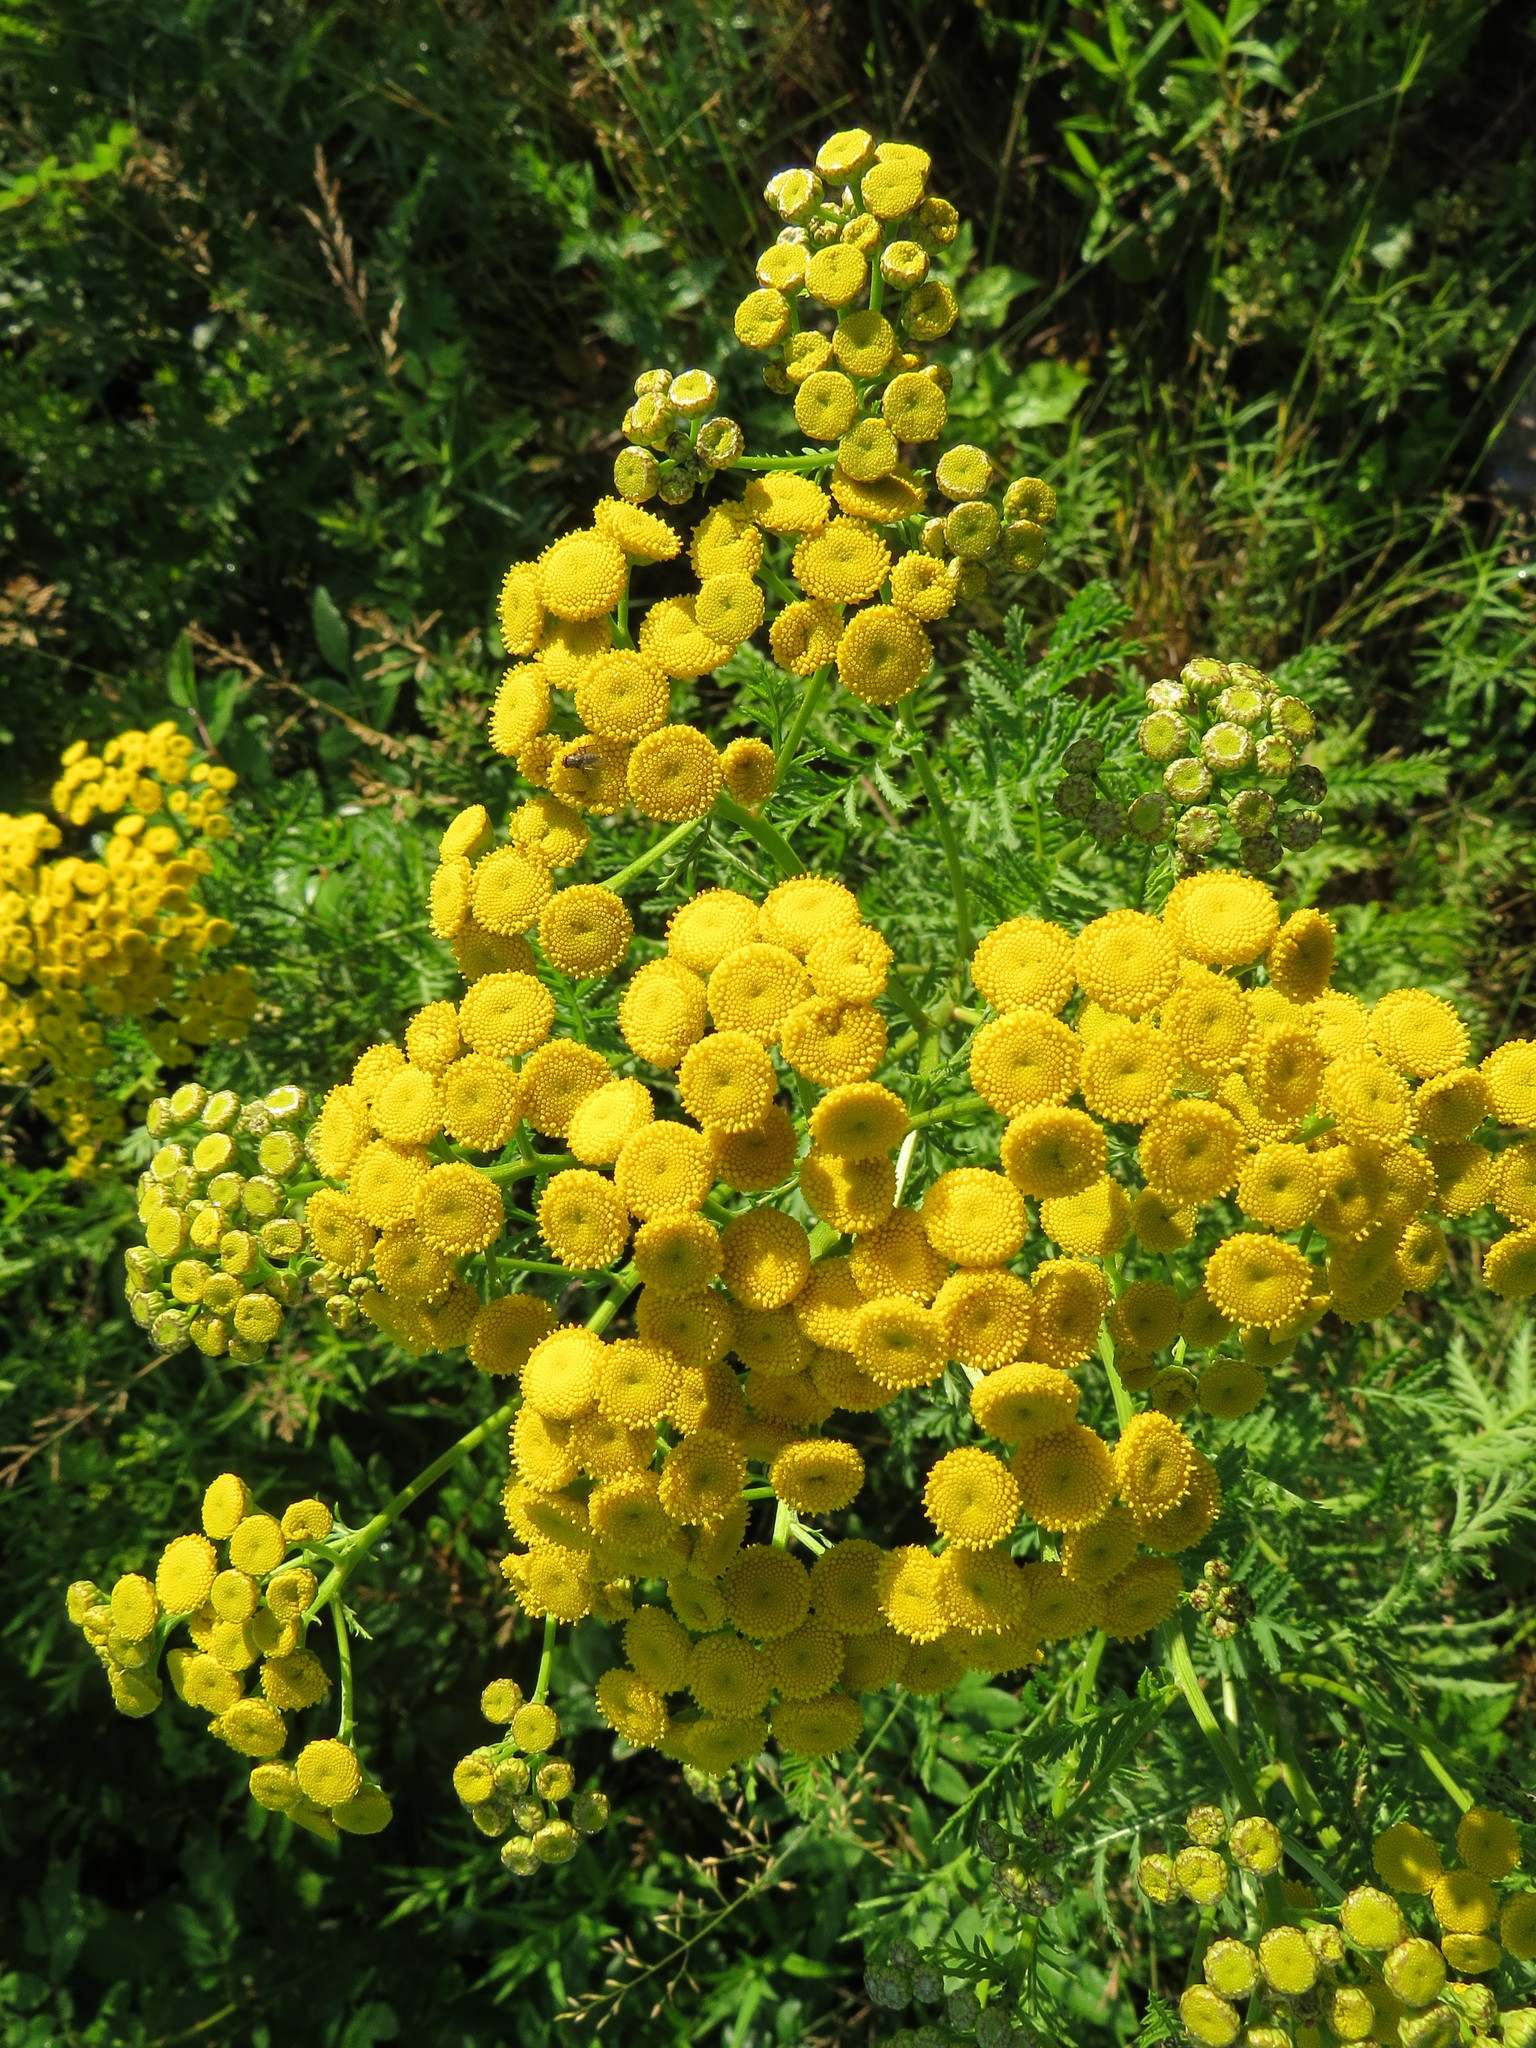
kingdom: Plantae
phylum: Tracheophyta
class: Magnoliopsida
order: Asterales
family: Asteraceae
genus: Tanacetum
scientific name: Tanacetum vulgare
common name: Common tansy
